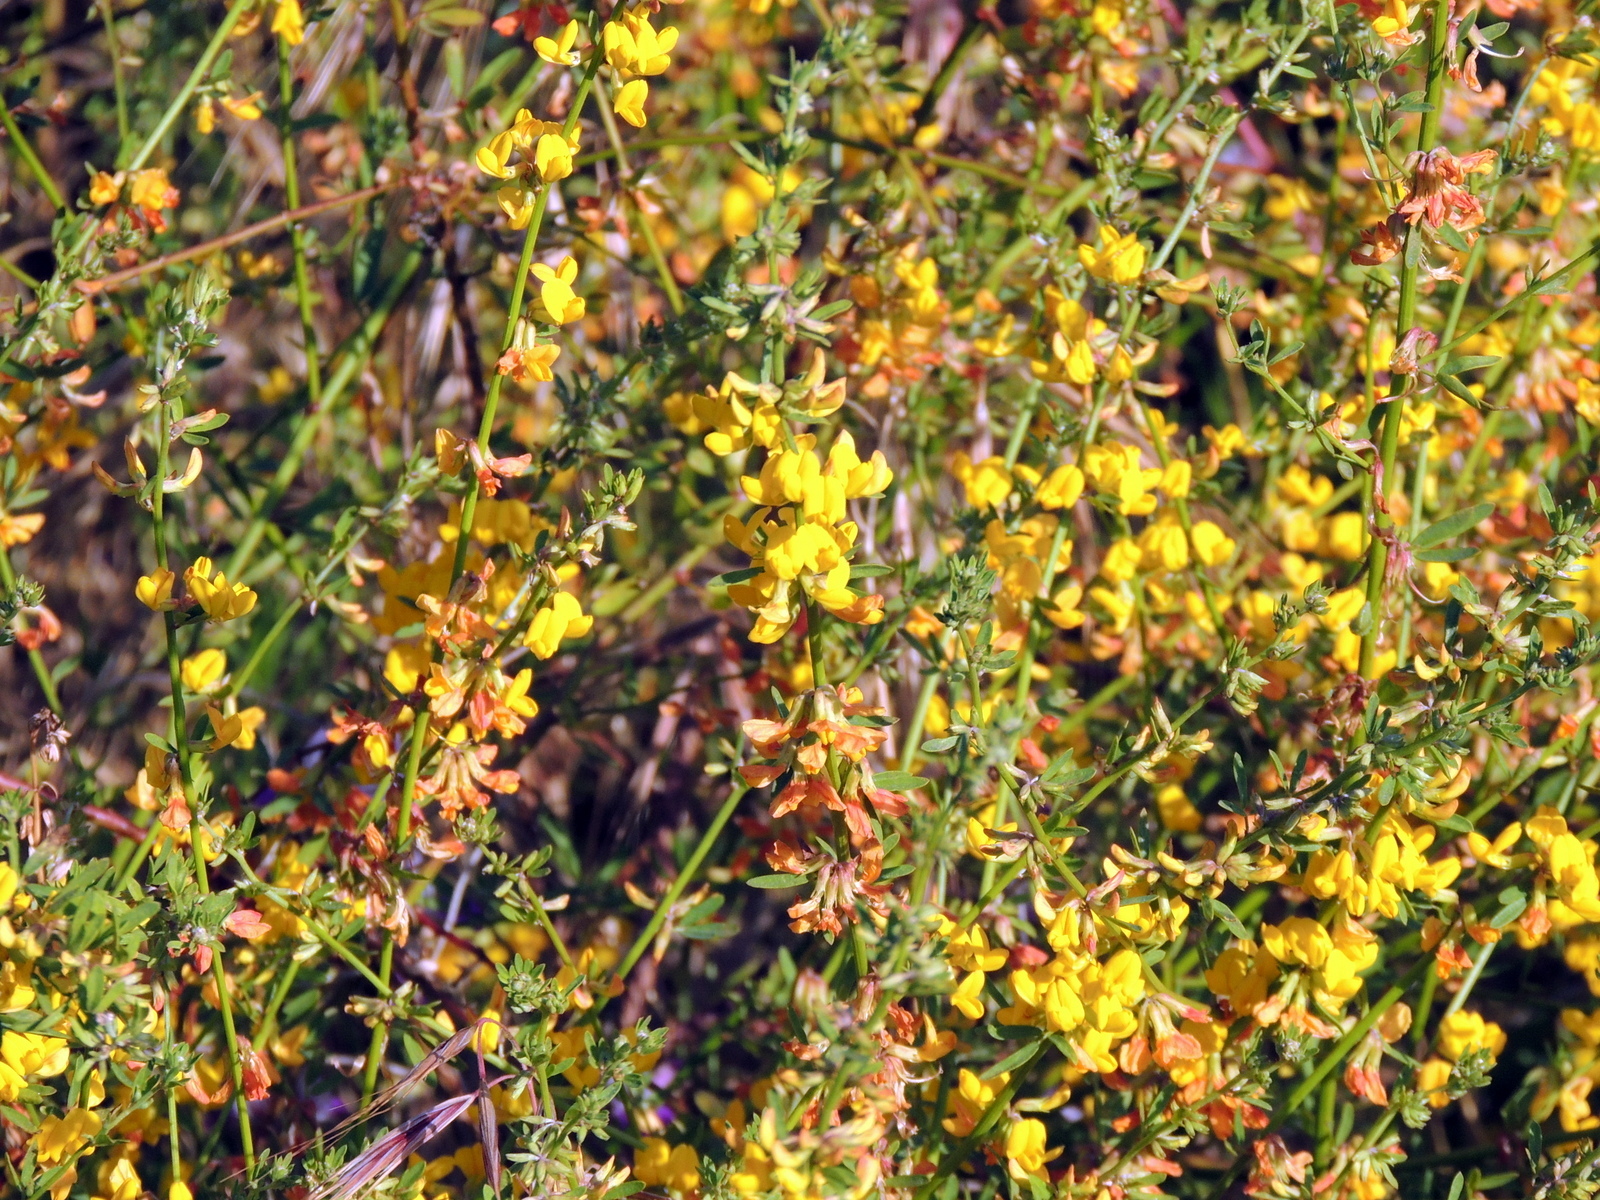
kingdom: Plantae
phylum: Tracheophyta
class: Magnoliopsida
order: Fabales
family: Fabaceae
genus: Acmispon
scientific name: Acmispon glaber
